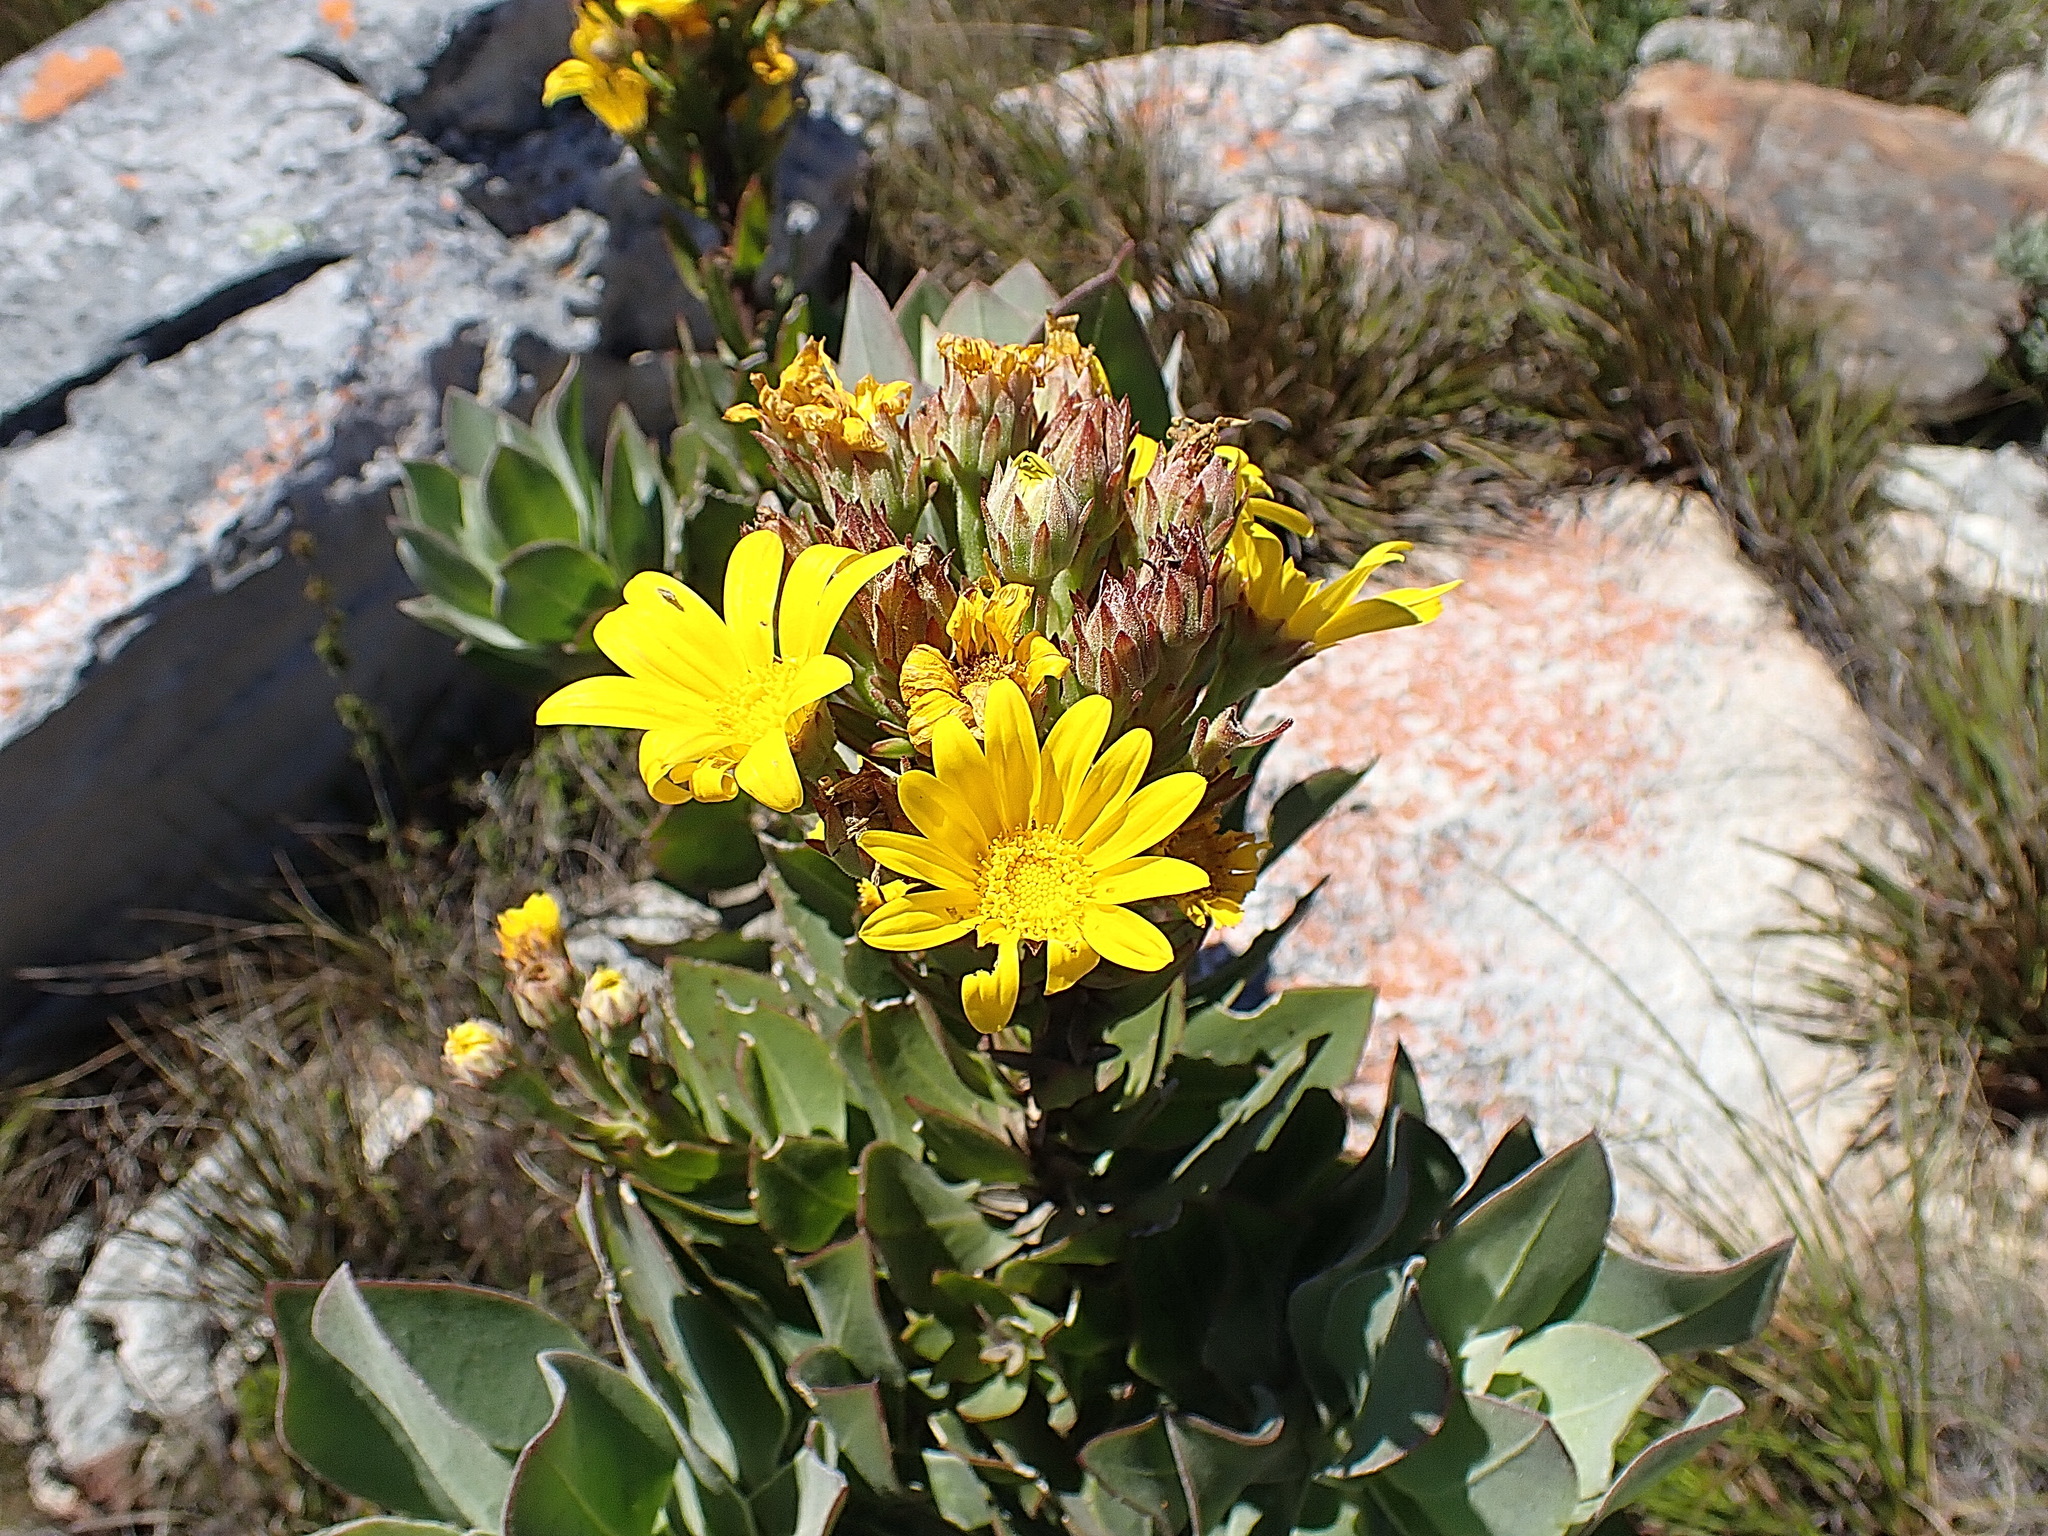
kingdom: Plantae
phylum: Tracheophyta
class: Magnoliopsida
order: Asterales
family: Asteraceae
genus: Osteospermum
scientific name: Osteospermum
